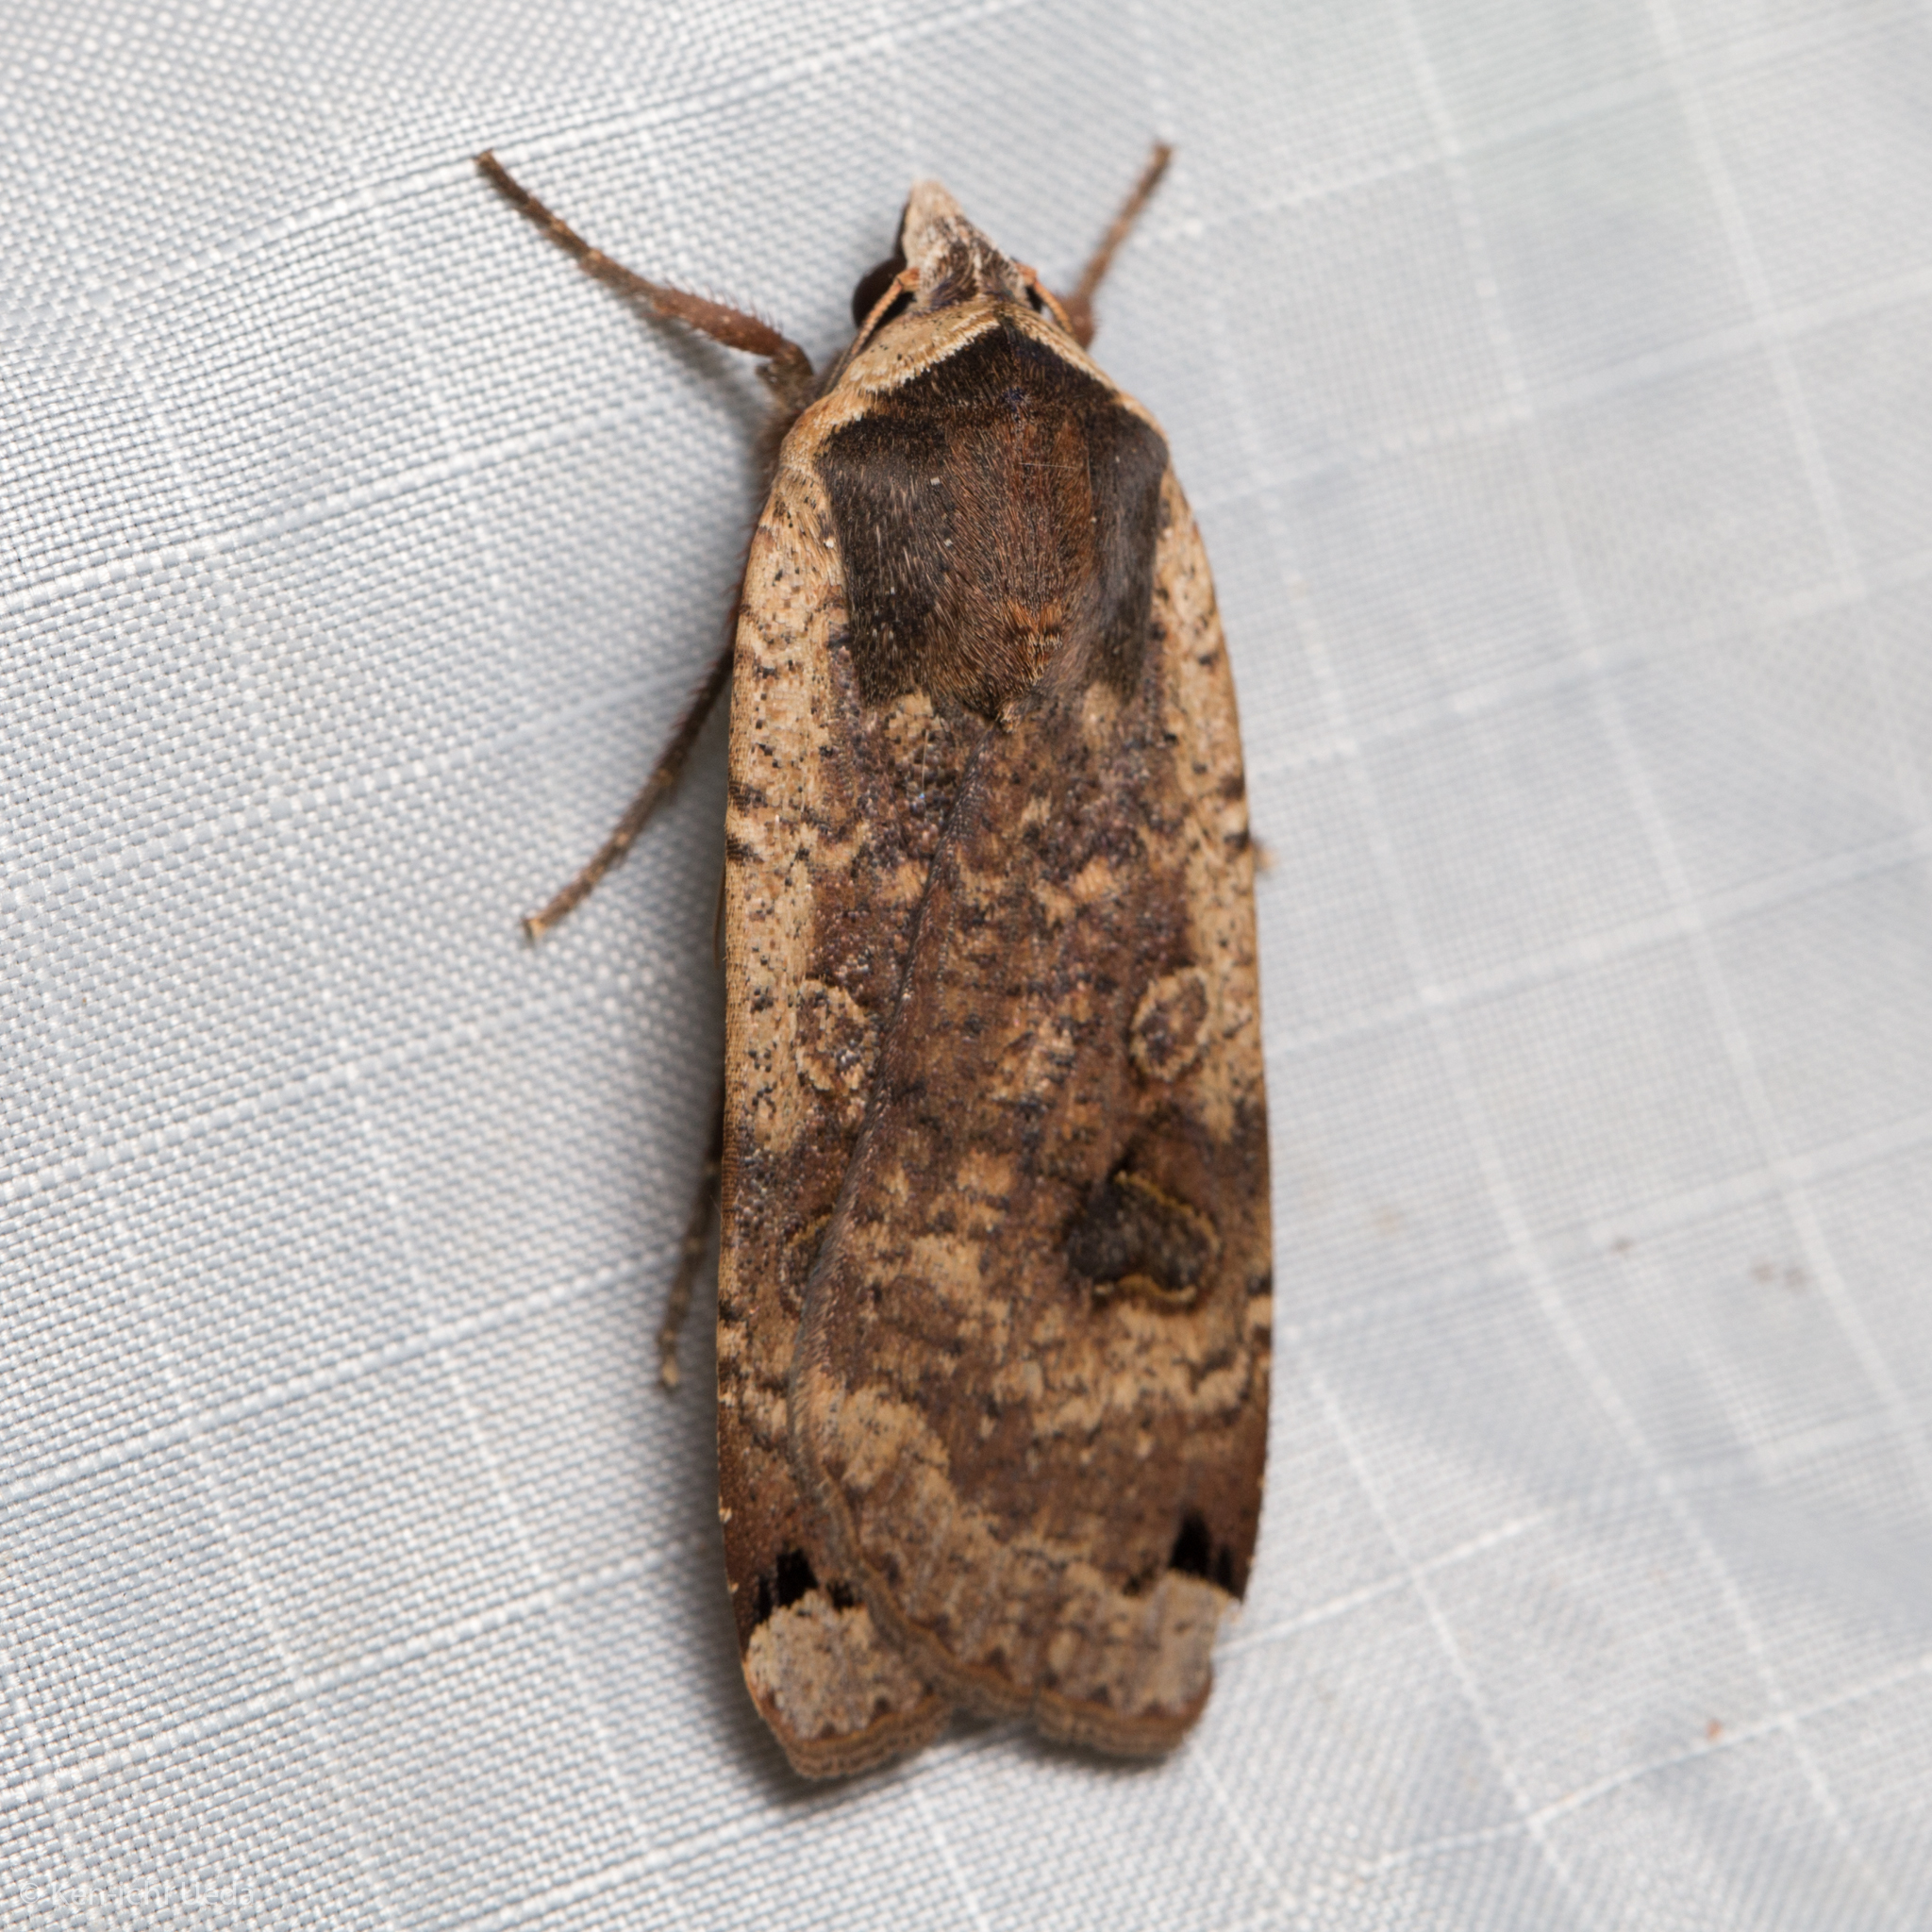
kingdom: Animalia
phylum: Arthropoda
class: Insecta
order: Lepidoptera
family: Noctuidae
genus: Noctua
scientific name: Noctua pronuba
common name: Large yellow underwing
